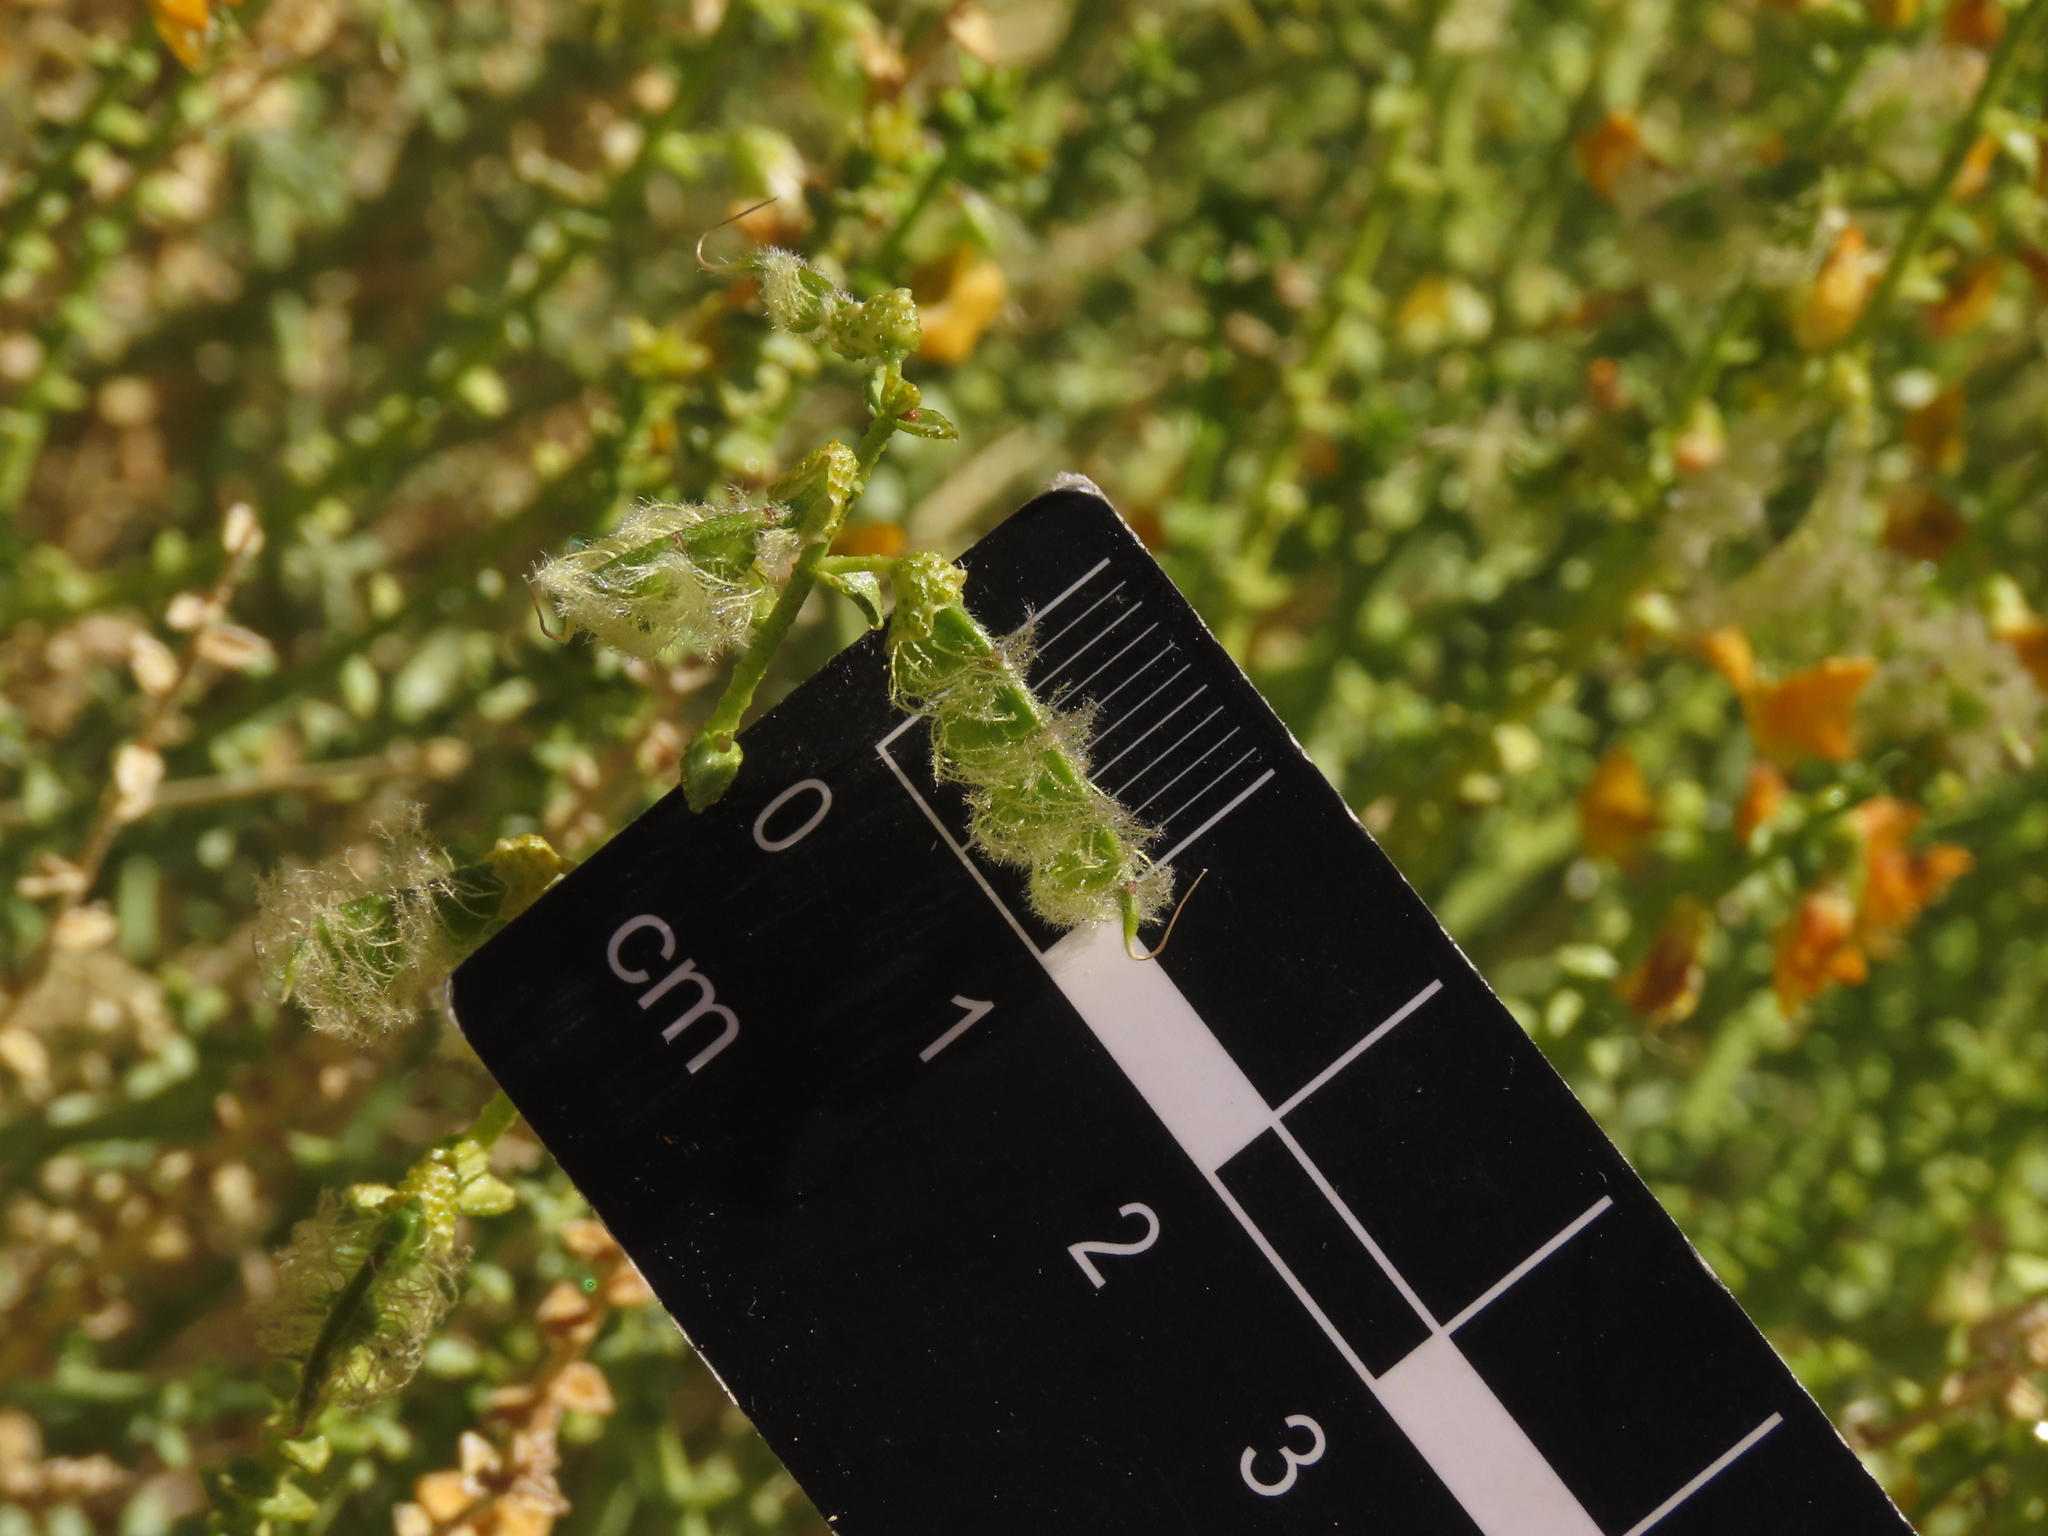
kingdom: Plantae
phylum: Tracheophyta
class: Magnoliopsida
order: Fabales
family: Fabaceae
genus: Adesmia
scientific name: Adesmia aphylla
